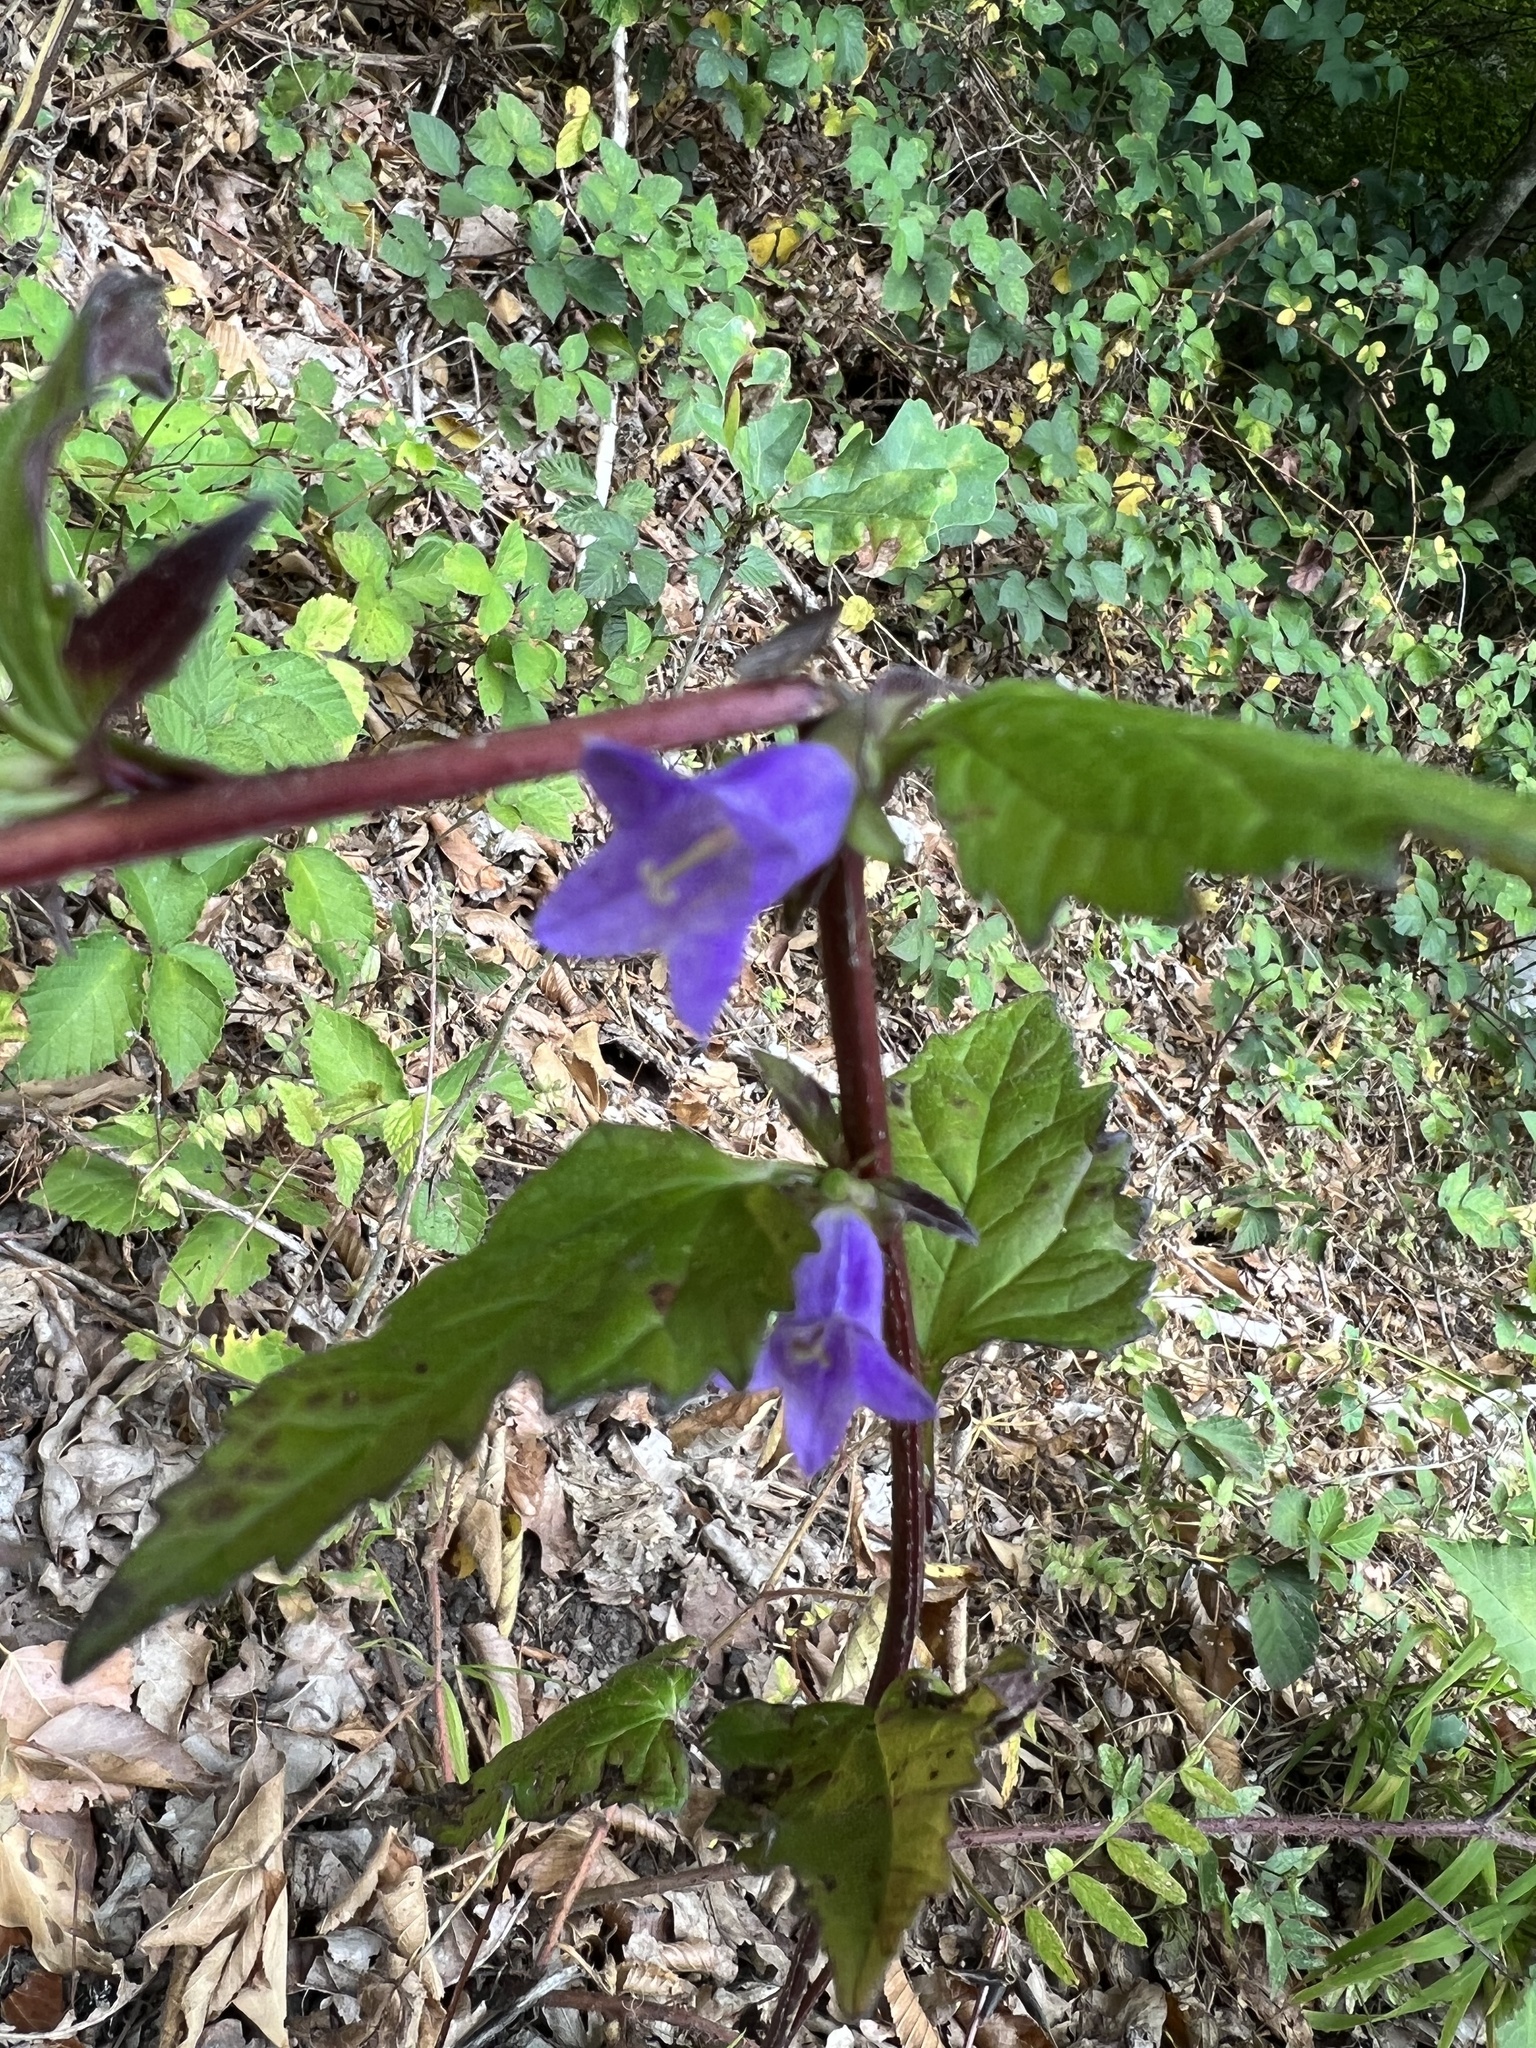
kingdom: Plantae
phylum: Tracheophyta
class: Magnoliopsida
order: Asterales
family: Campanulaceae
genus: Campanula
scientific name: Campanula trachelium
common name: Nettle-leaved bellflower
